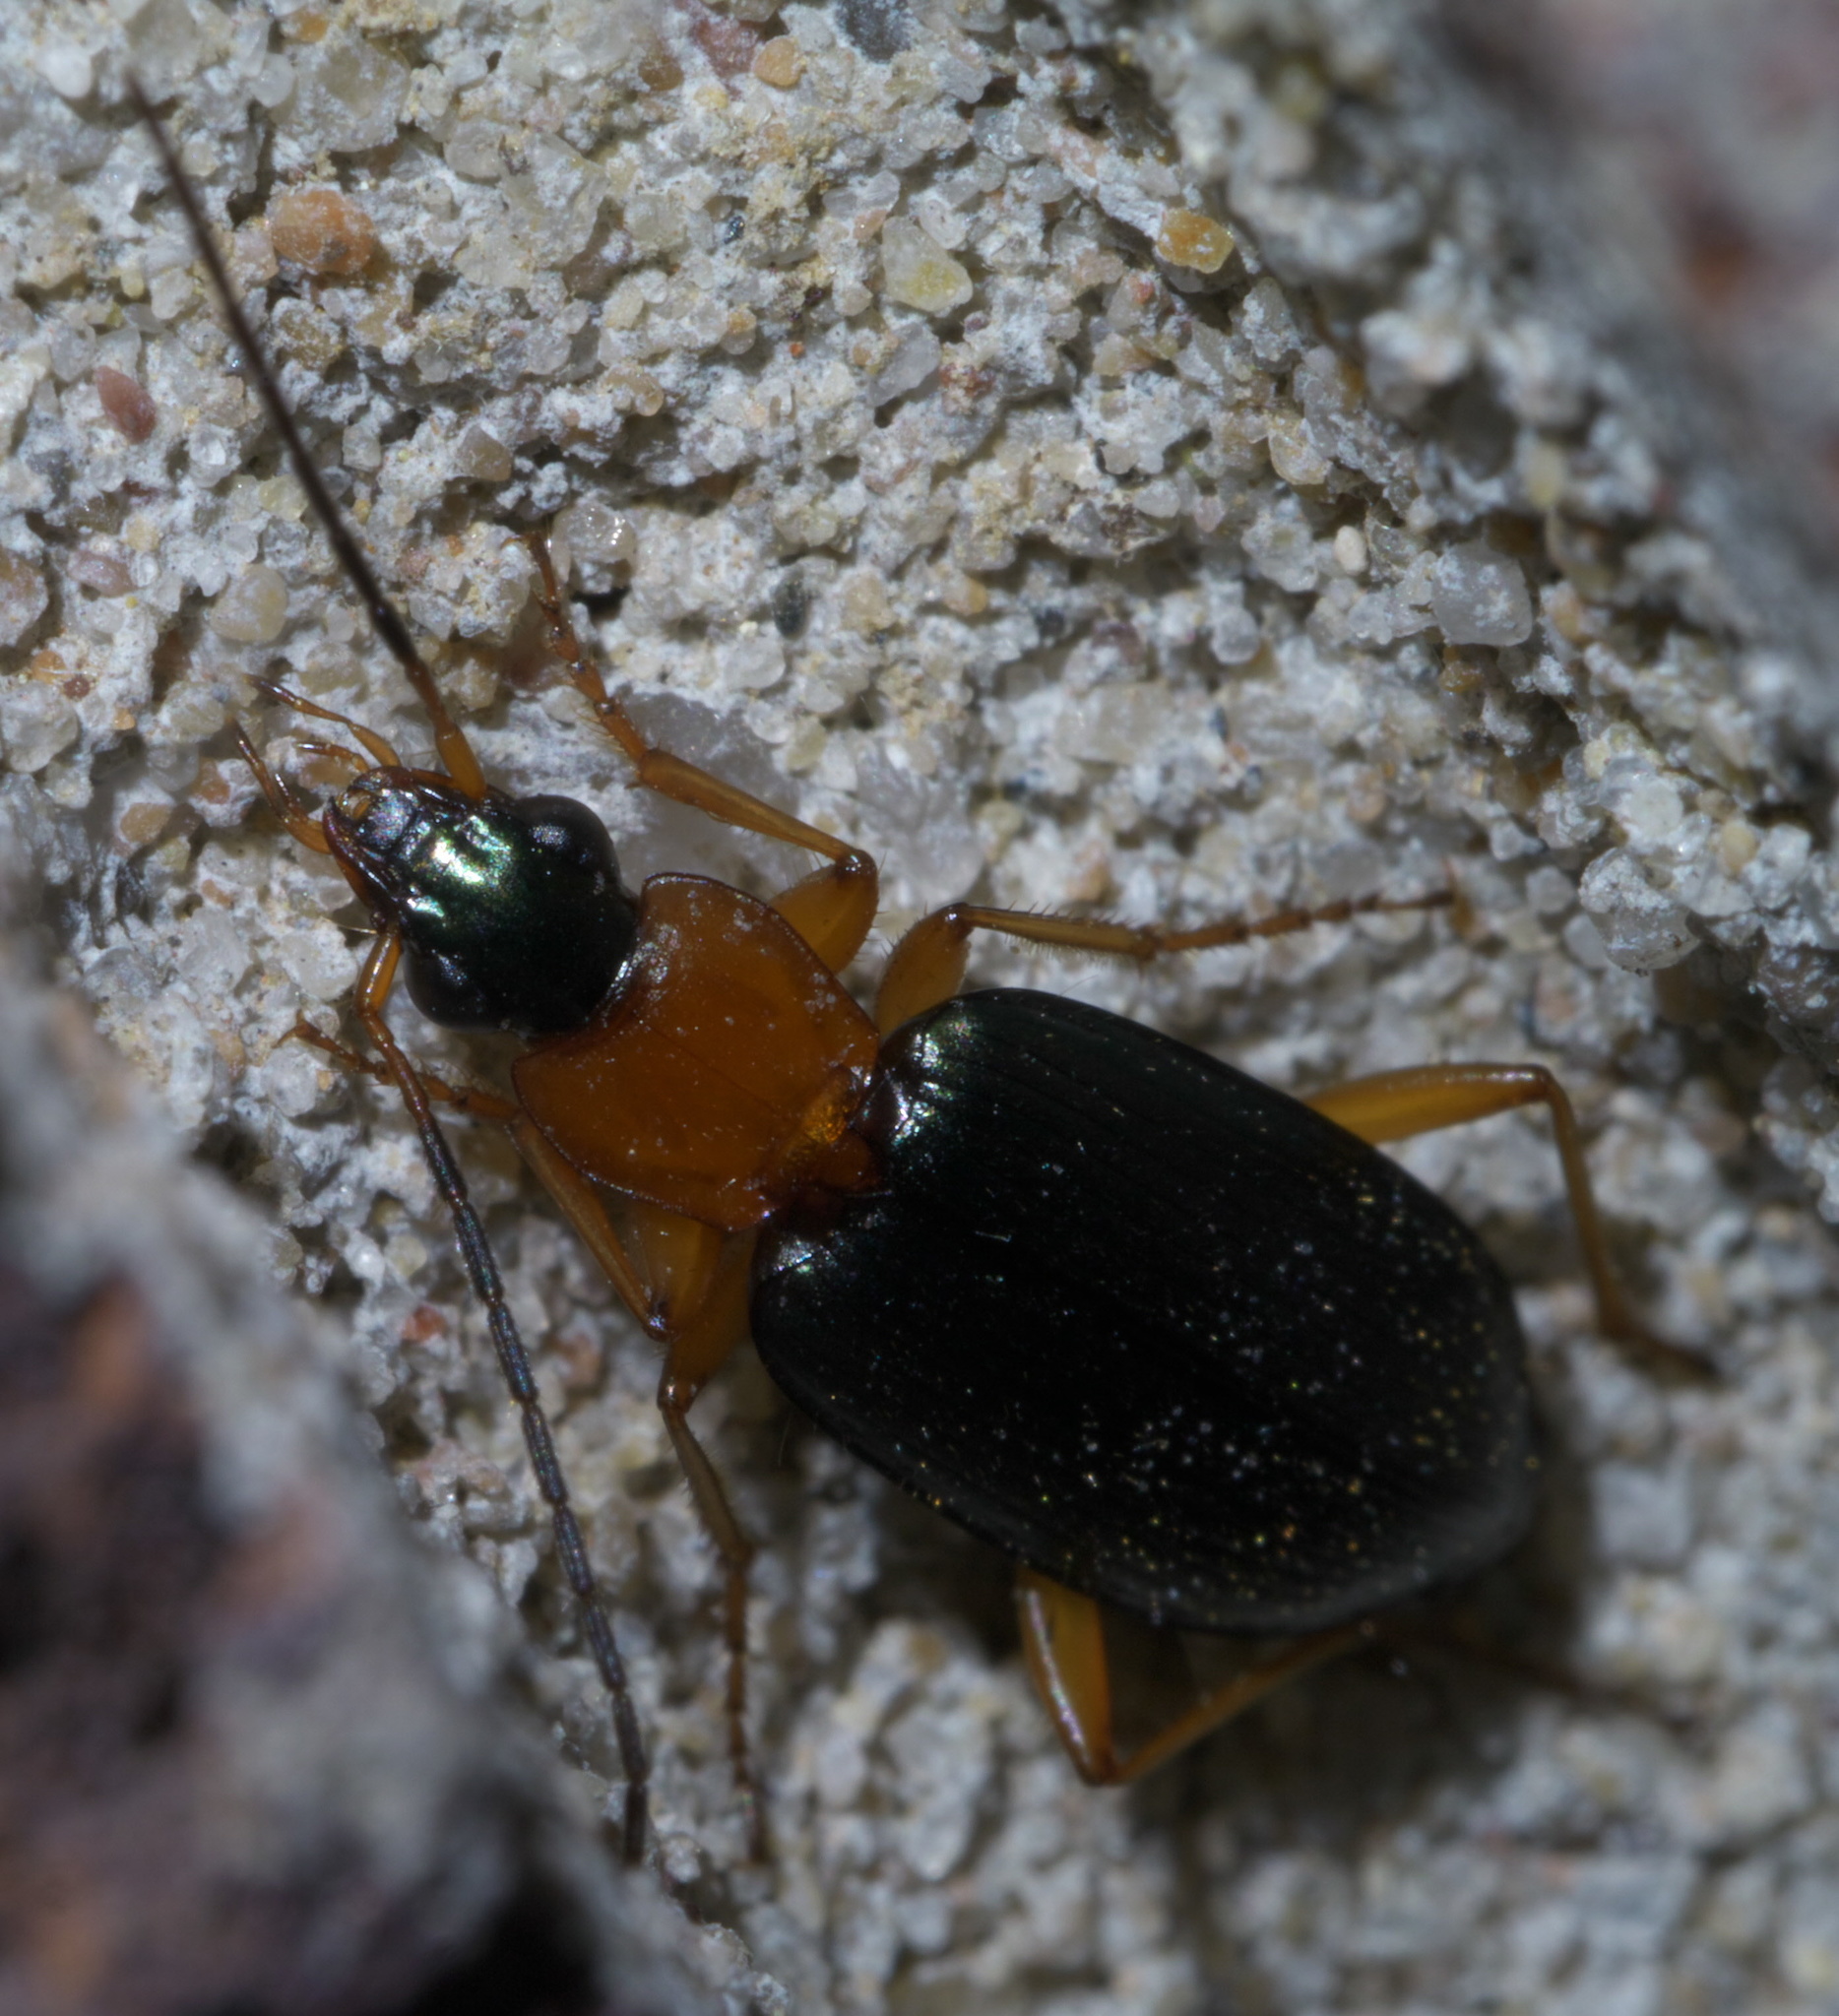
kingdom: Animalia
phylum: Arthropoda
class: Insecta
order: Coleoptera
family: Carabidae
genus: Agonum
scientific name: Agonum decorum
